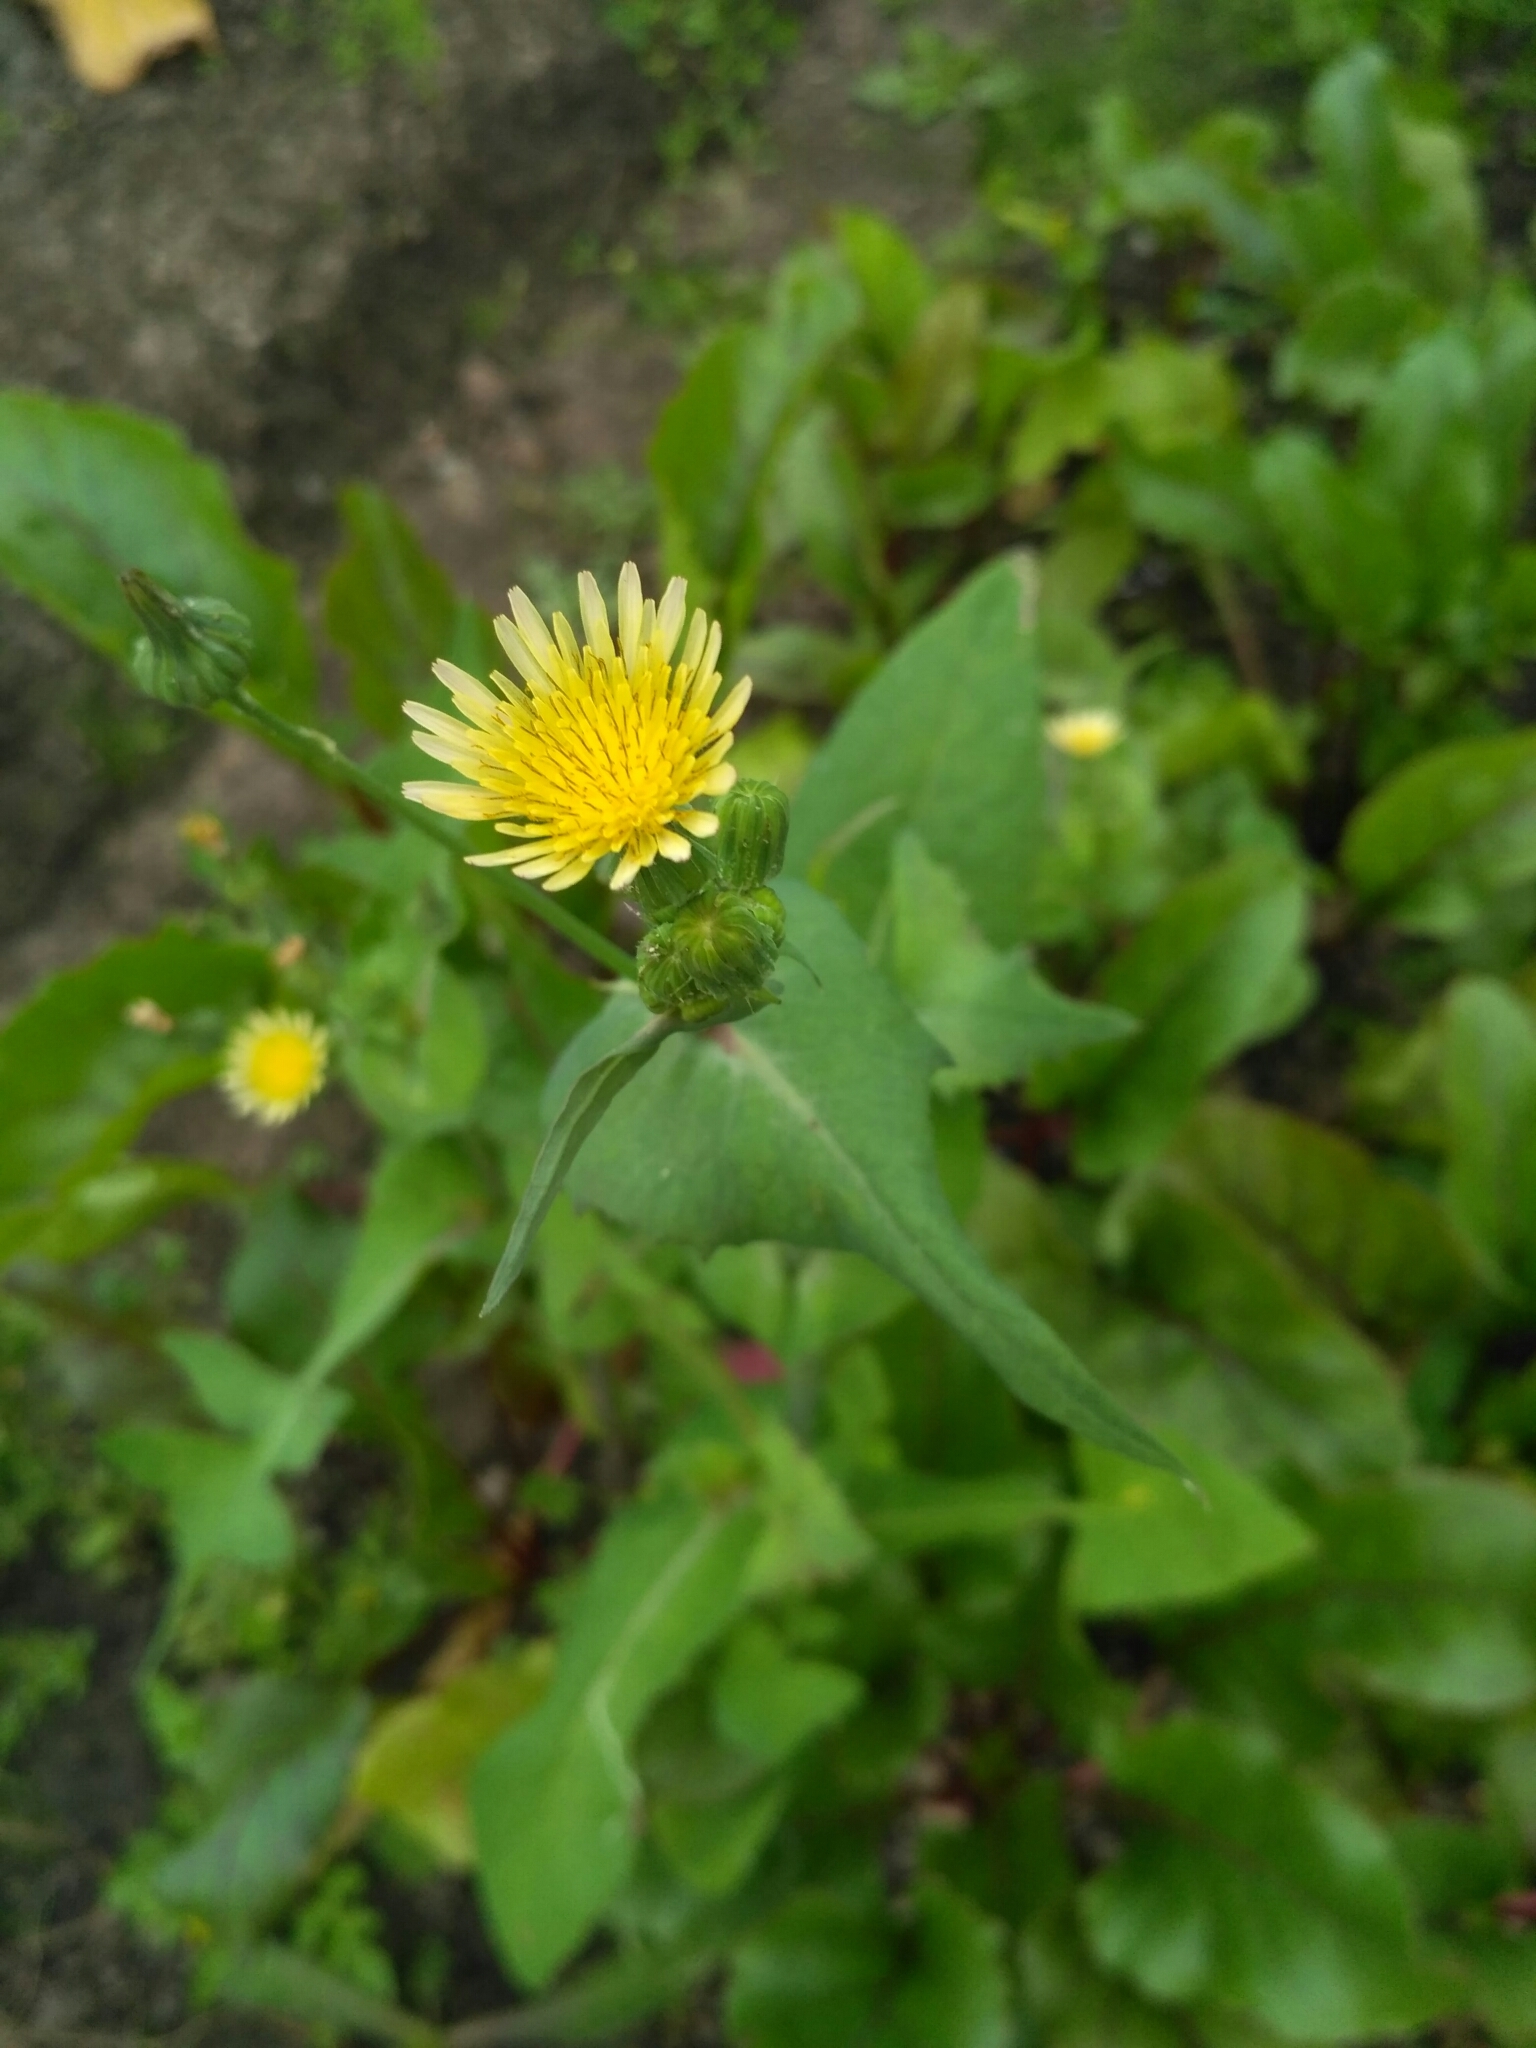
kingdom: Plantae
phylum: Tracheophyta
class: Magnoliopsida
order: Asterales
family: Asteraceae
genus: Sonchus
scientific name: Sonchus oleraceus
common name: Common sowthistle
